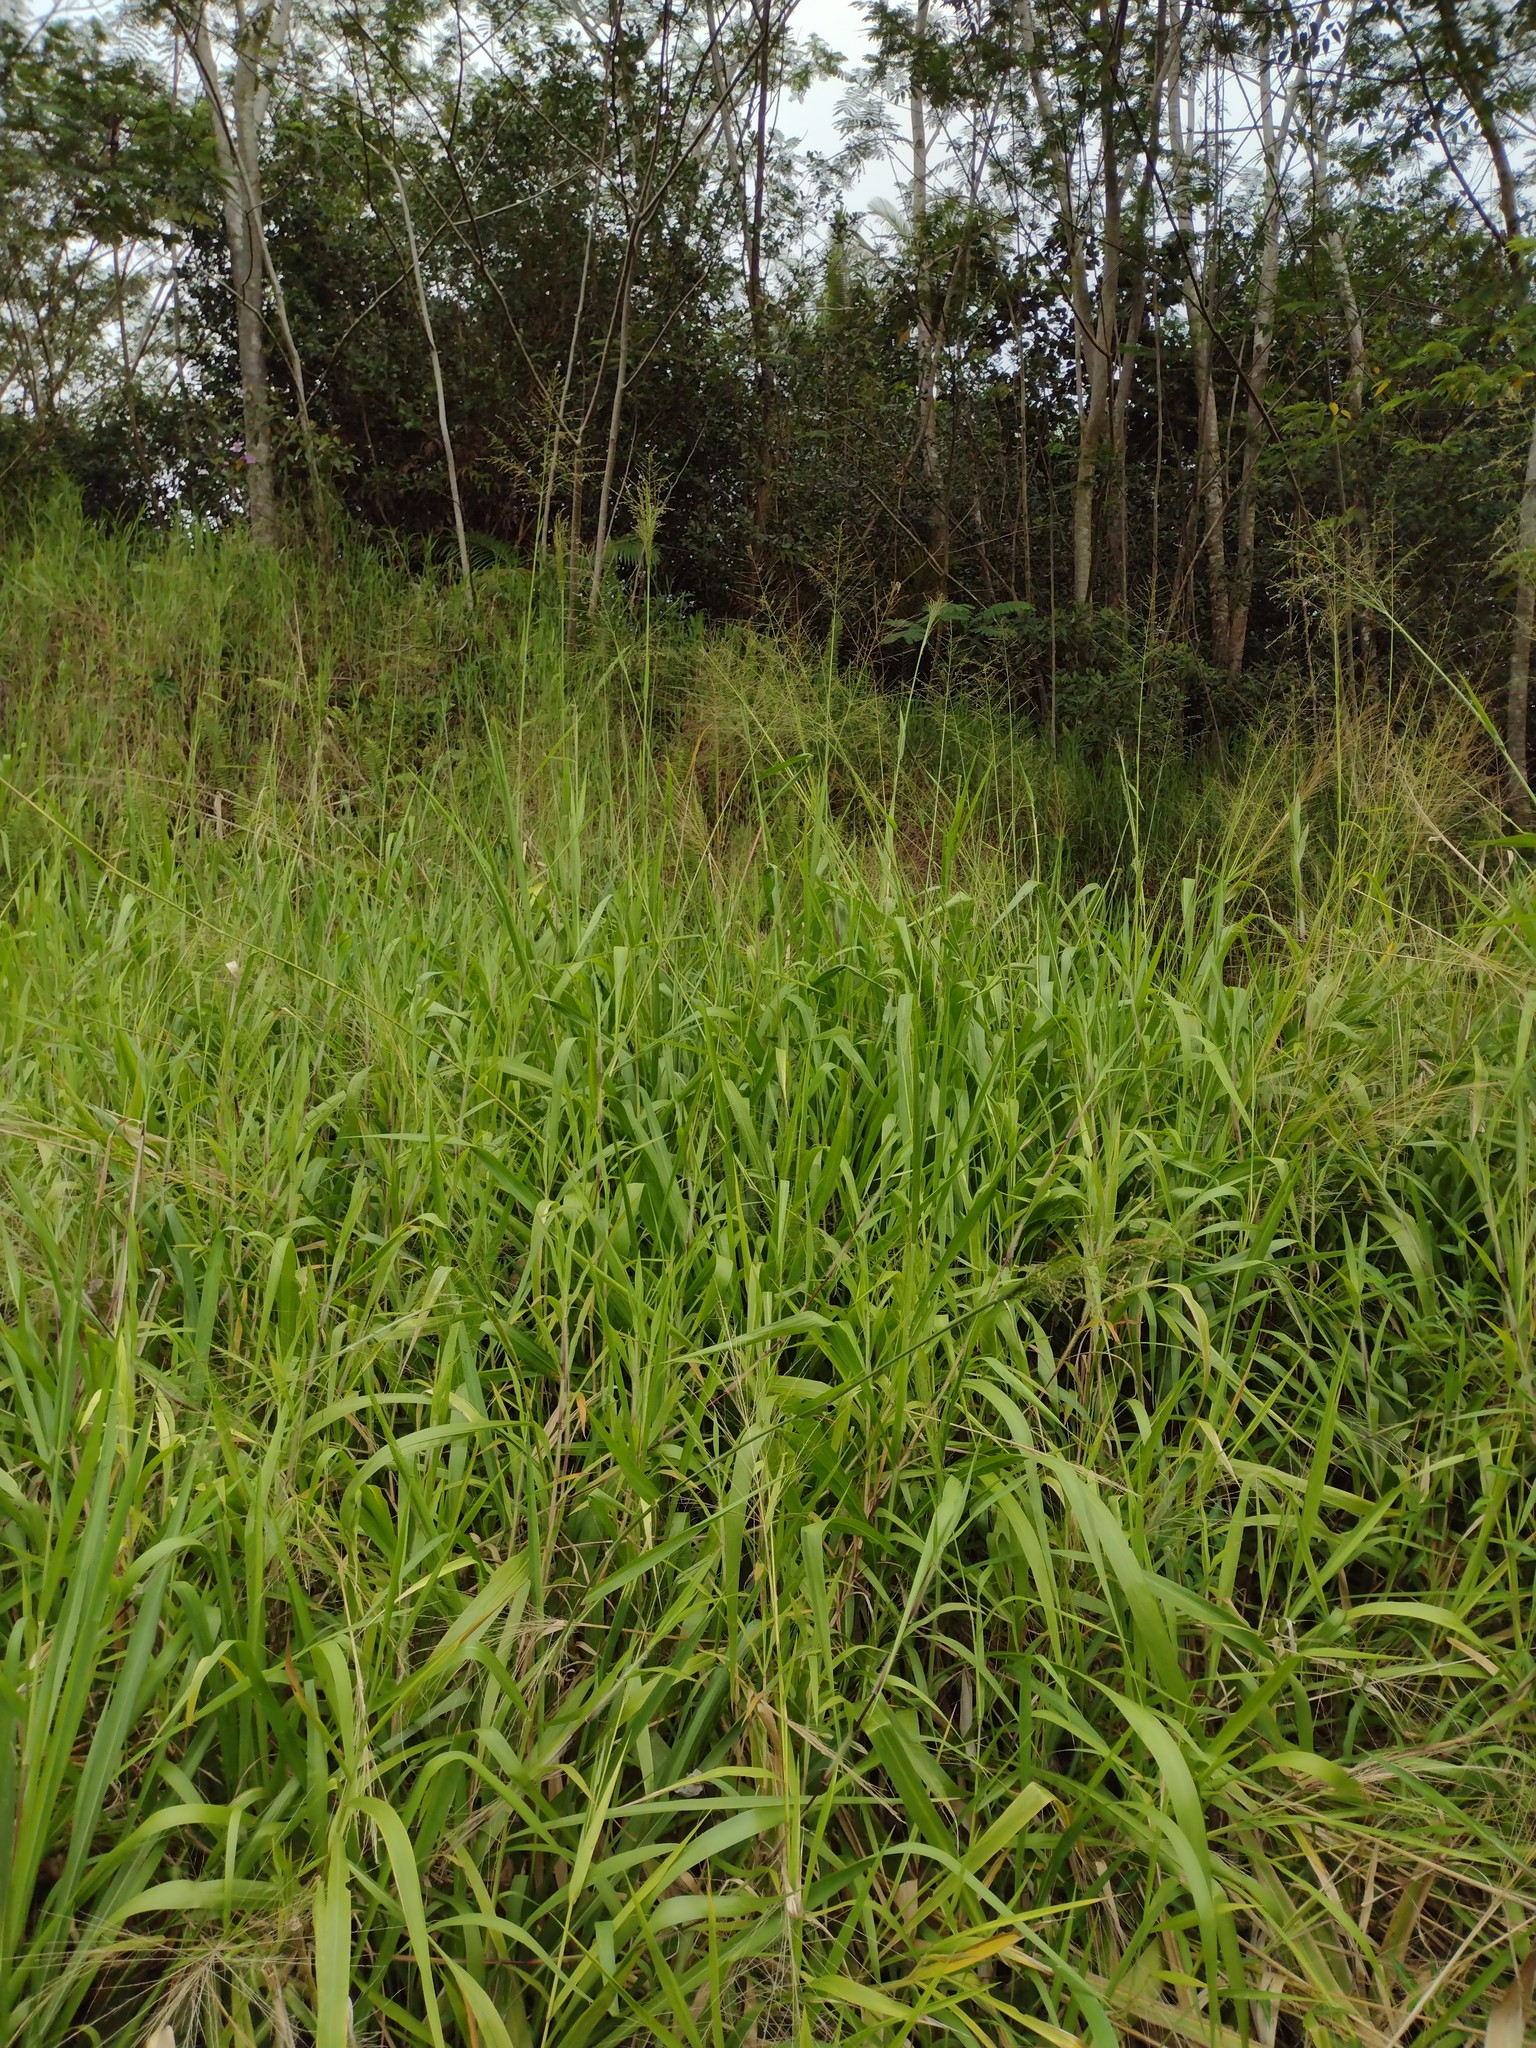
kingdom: Plantae
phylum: Tracheophyta
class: Liliopsida
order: Poales
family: Poaceae
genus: Megathyrsus
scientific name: Megathyrsus maximus
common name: Guineagrass
